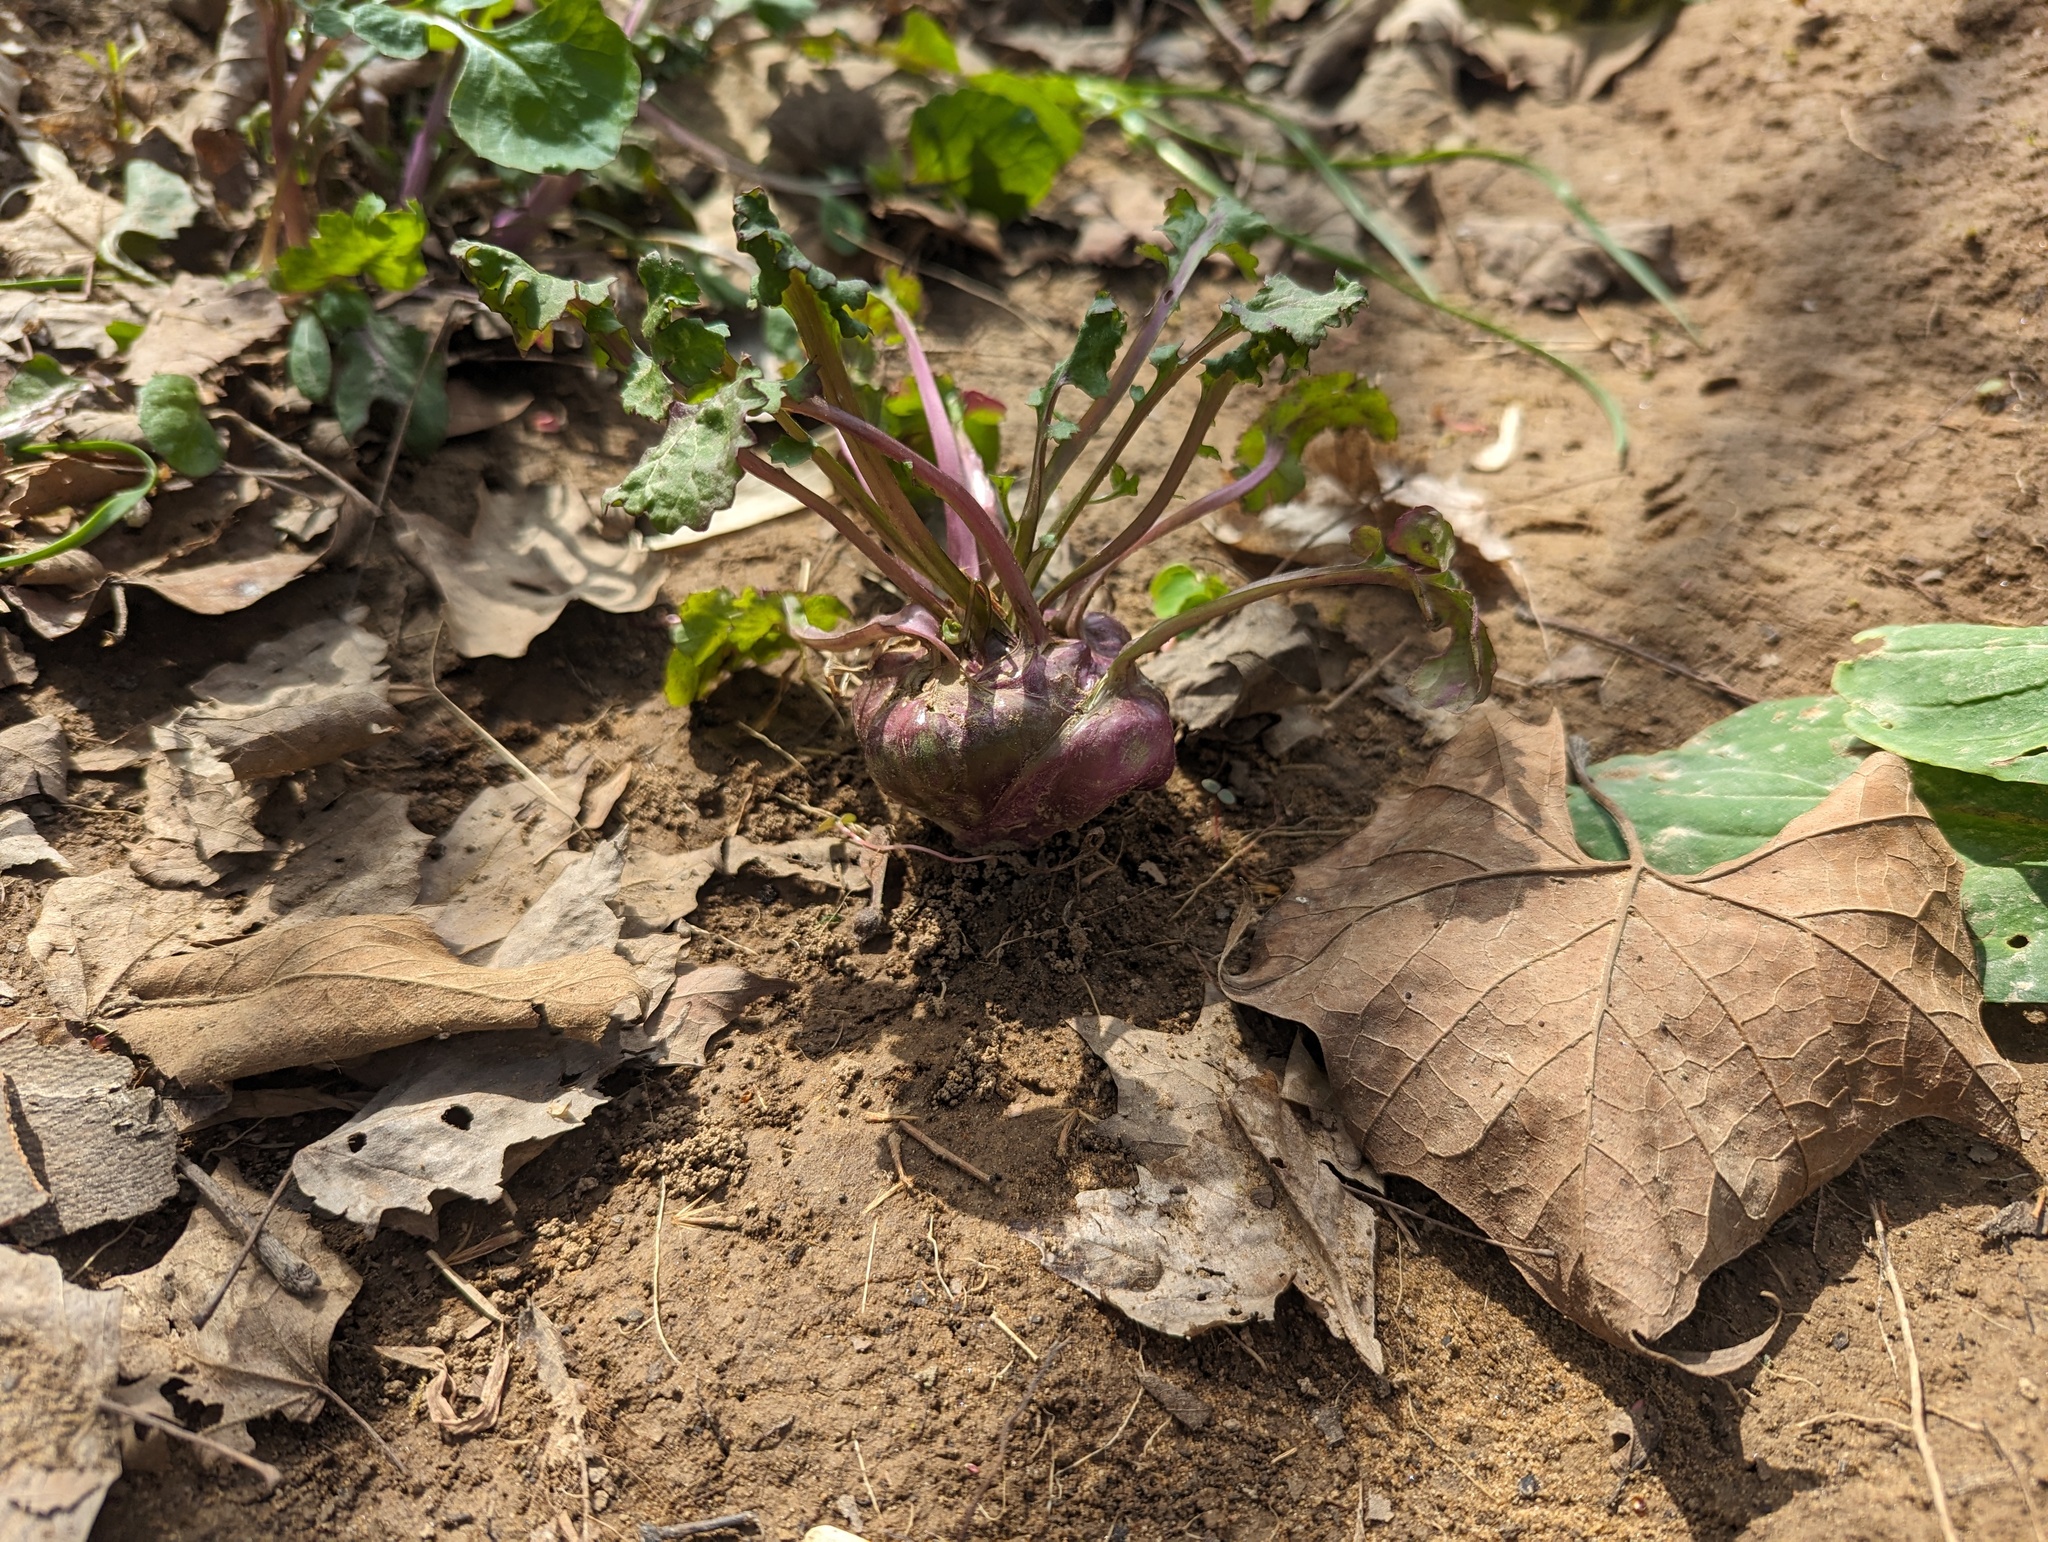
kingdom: Plantae
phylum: Tracheophyta
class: Magnoliopsida
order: Asterales
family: Asteraceae
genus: Packera
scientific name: Packera glabella
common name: Butterweed
